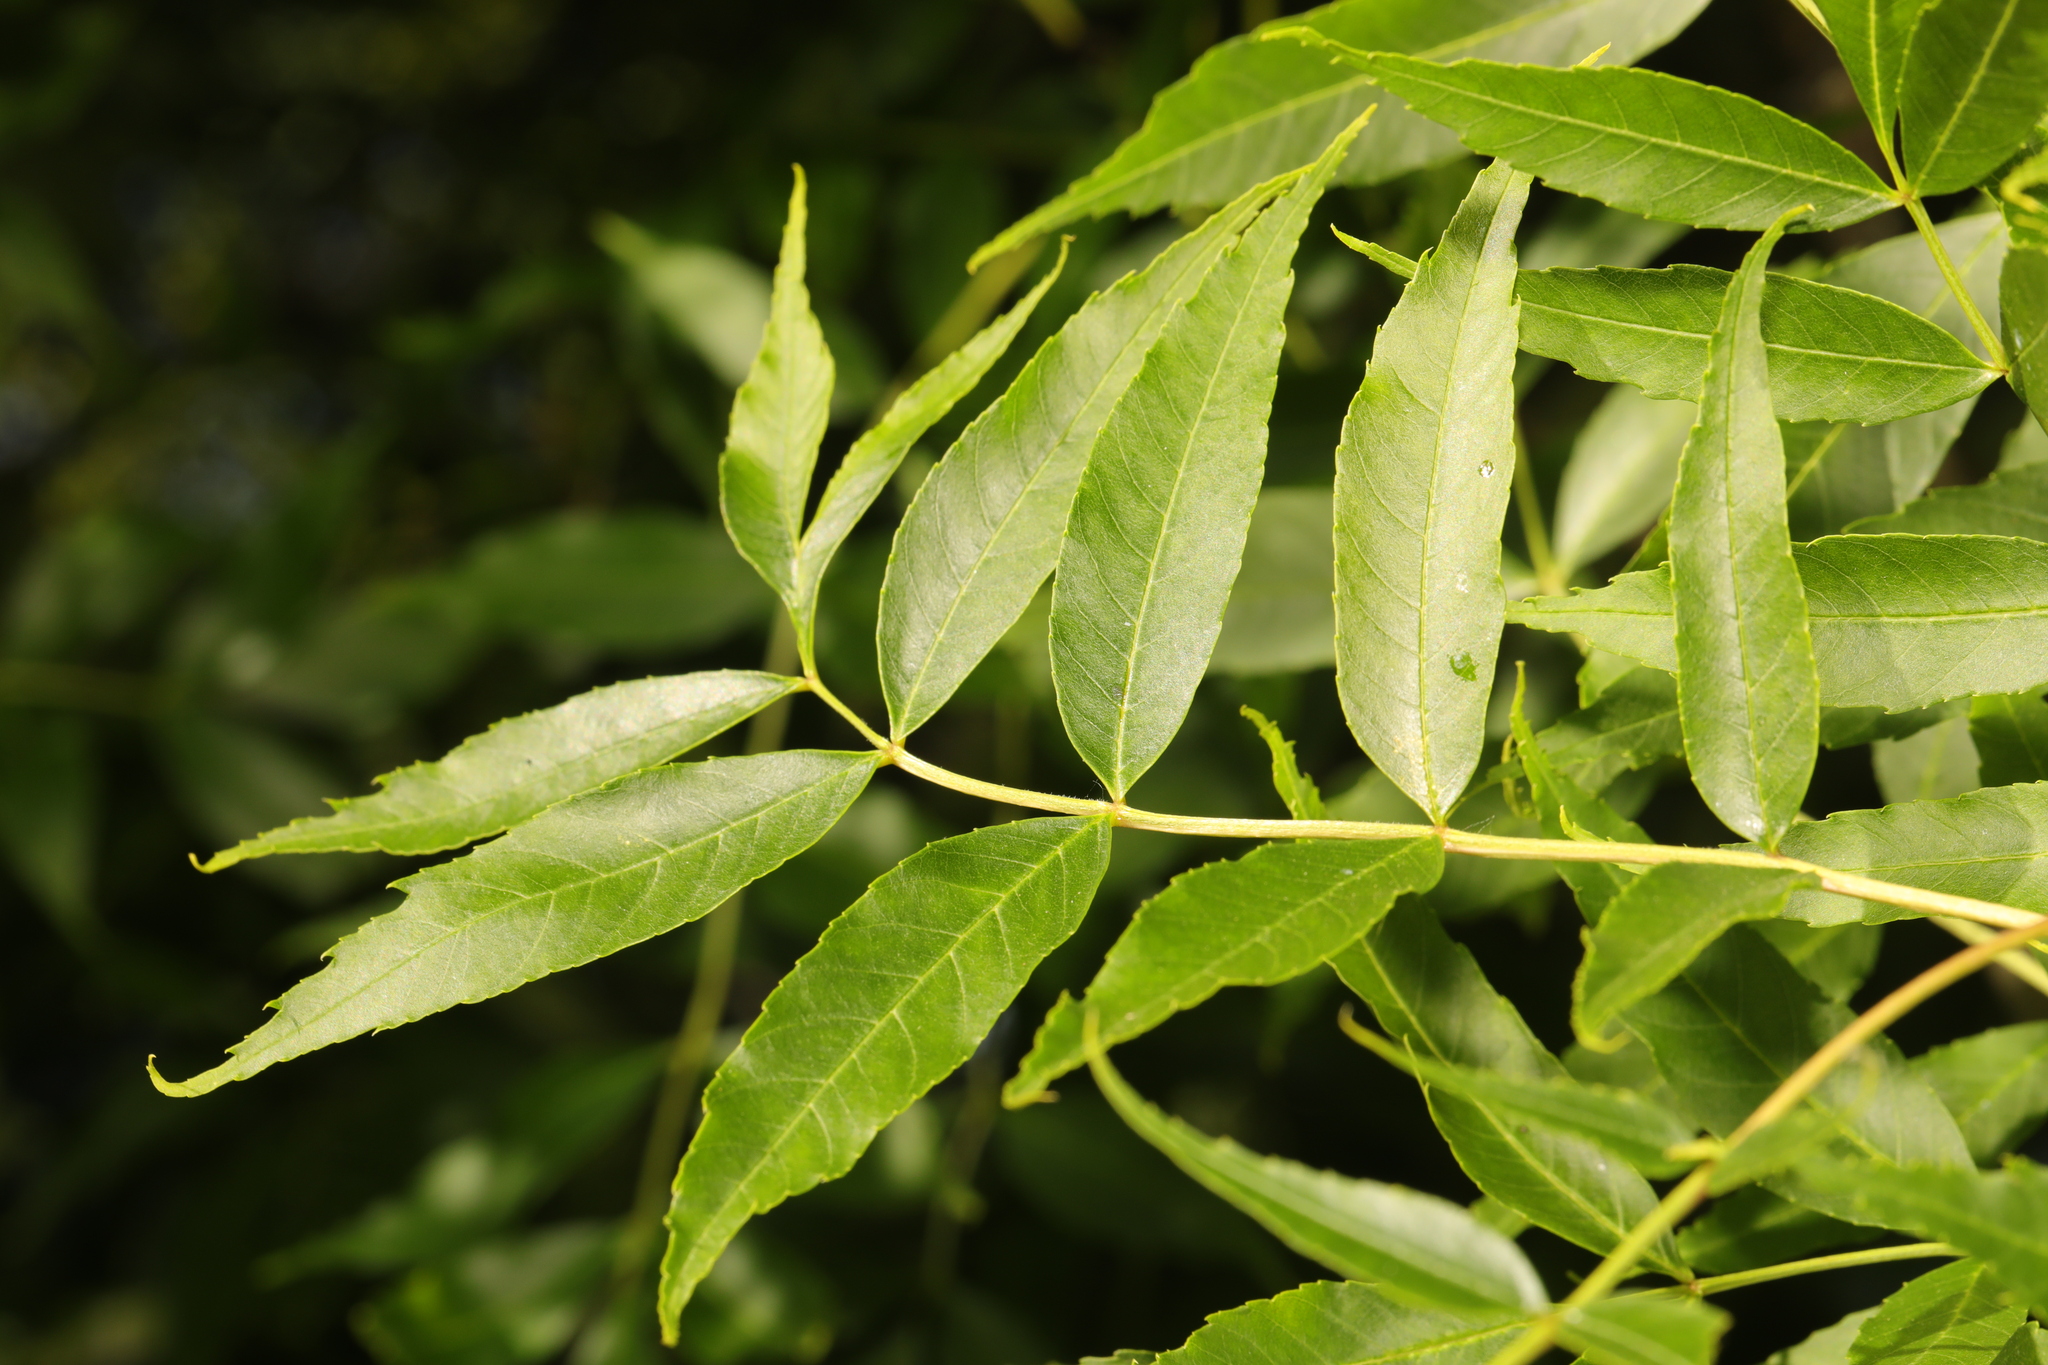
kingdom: Plantae
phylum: Tracheophyta
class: Magnoliopsida
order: Lamiales
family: Oleaceae
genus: Fraxinus
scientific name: Fraxinus angustifolia
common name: Narrow-leafed ash
